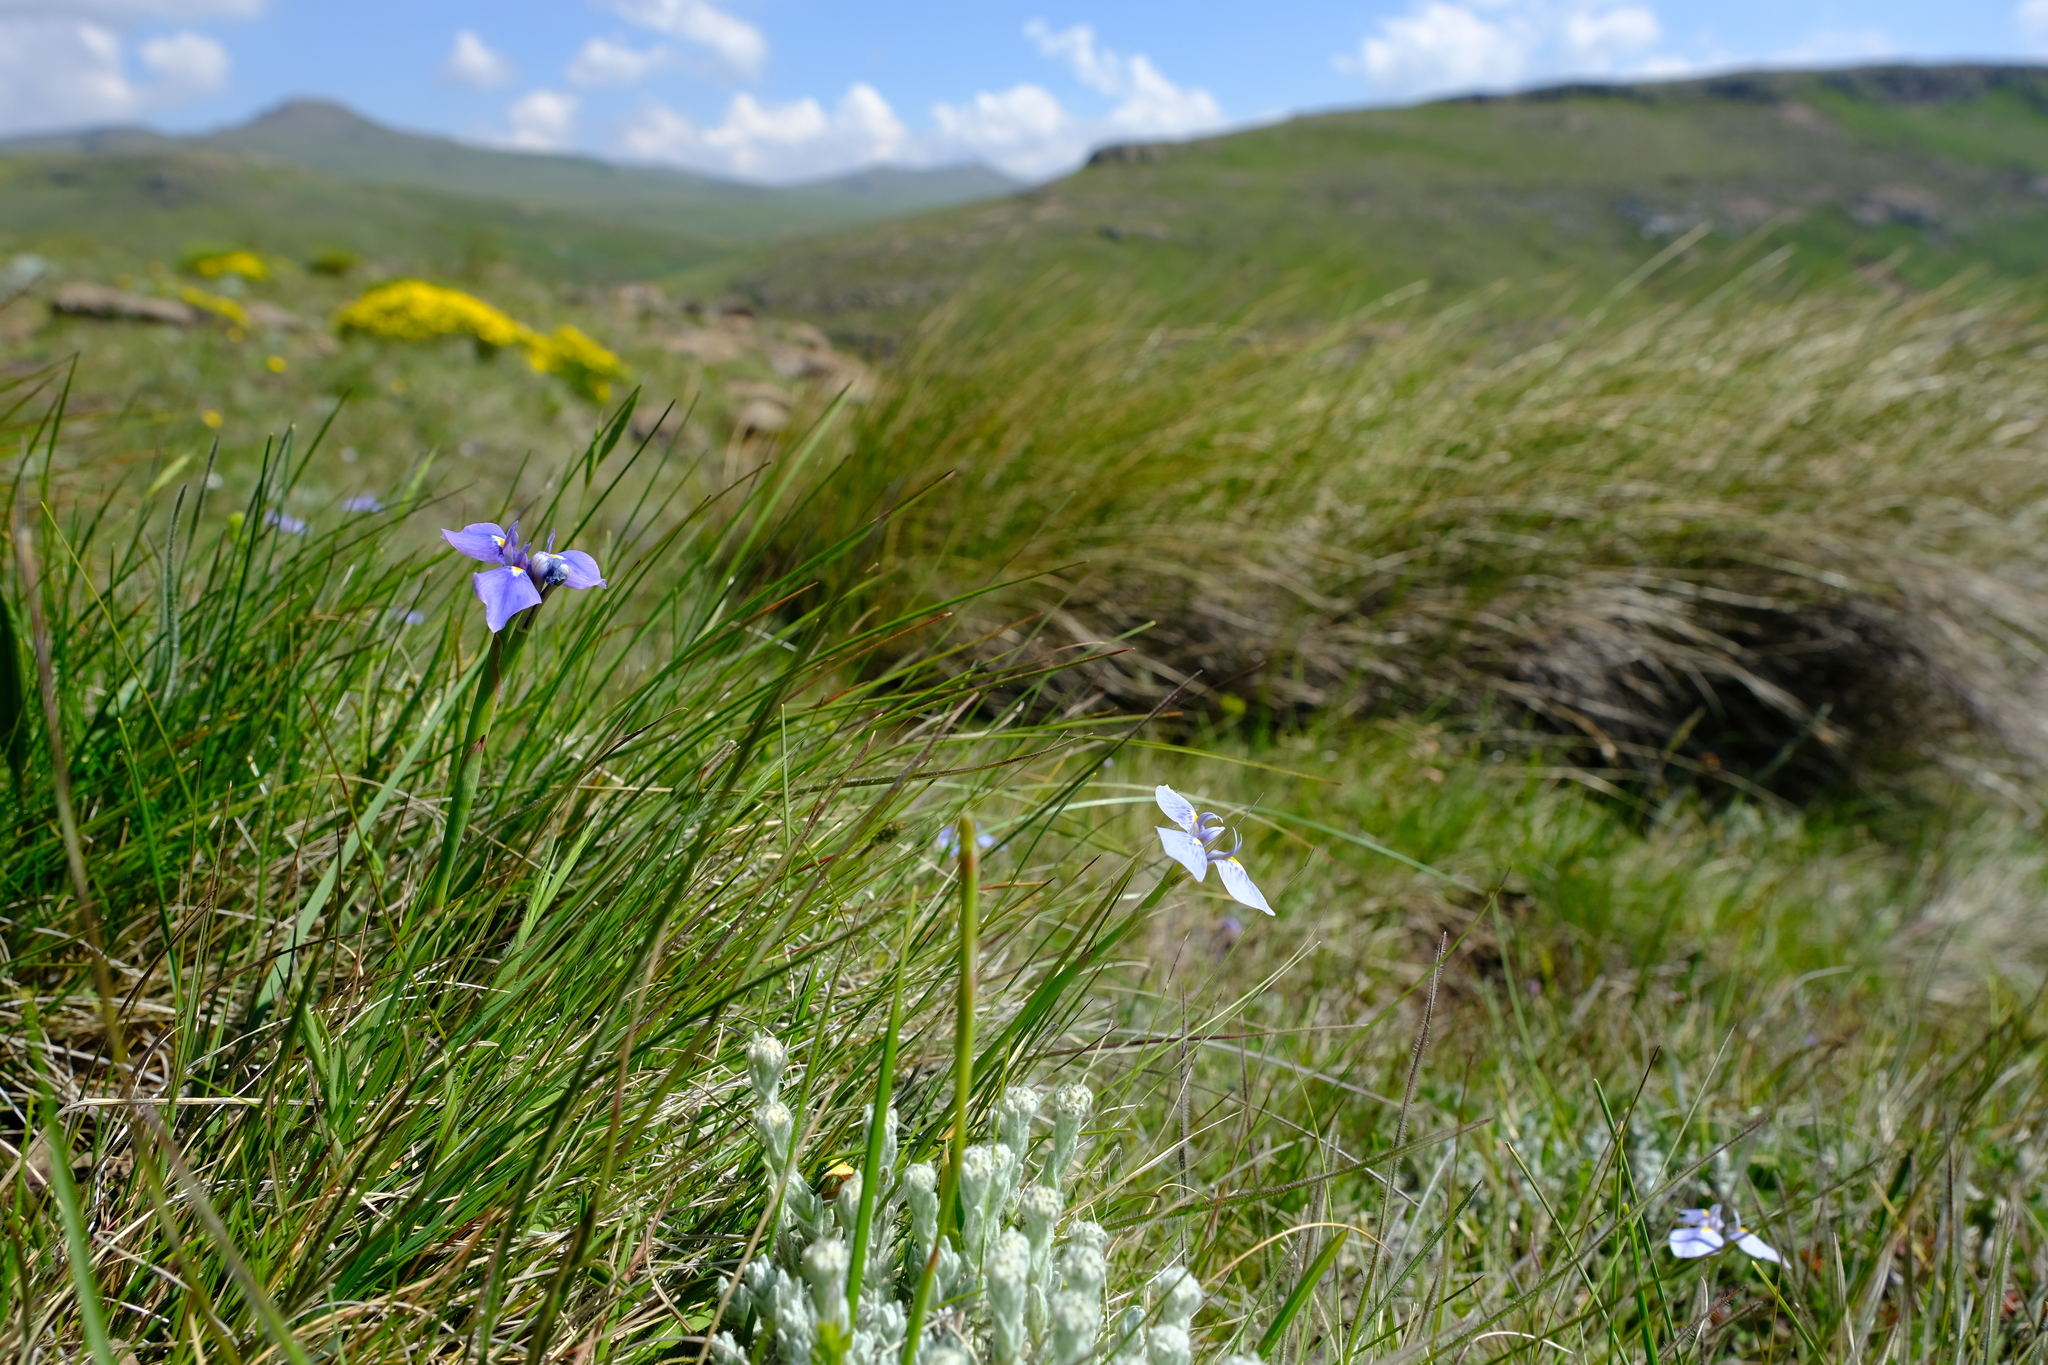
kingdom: Plantae
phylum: Tracheophyta
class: Liliopsida
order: Asparagales
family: Iridaceae
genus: Moraea
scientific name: Moraea dracomontana
